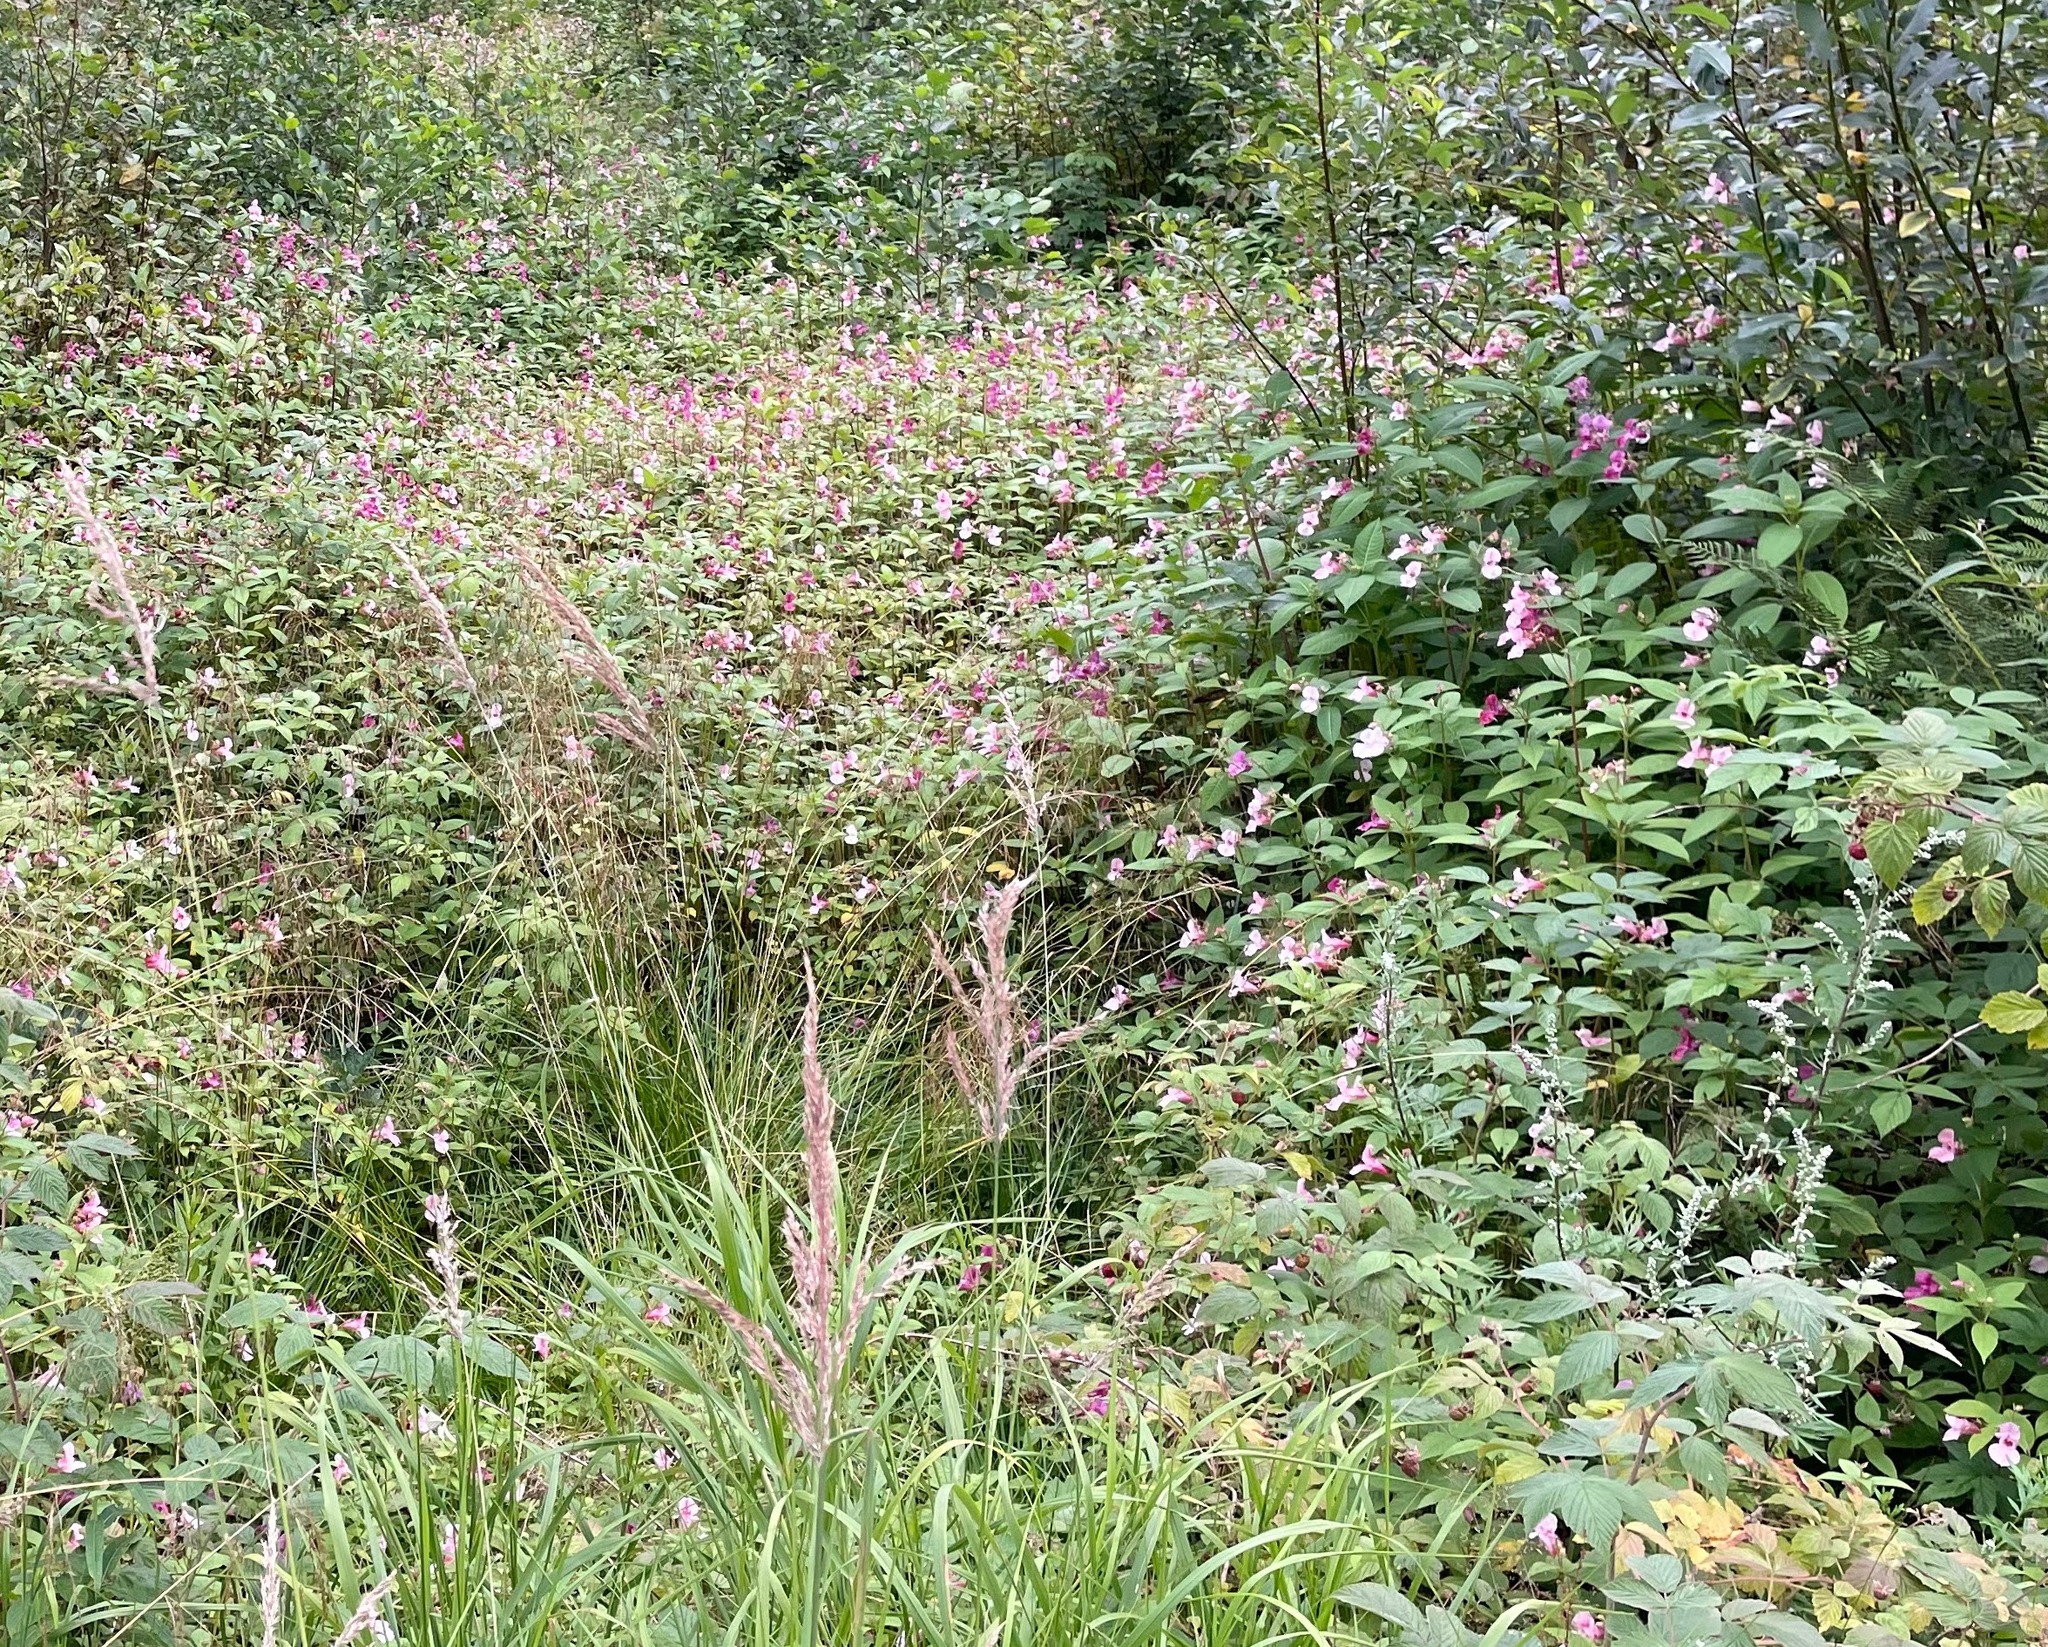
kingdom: Plantae
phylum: Tracheophyta
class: Magnoliopsida
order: Ericales
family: Balsaminaceae
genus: Impatiens
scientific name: Impatiens glandulifera
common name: Himalayan balsam
